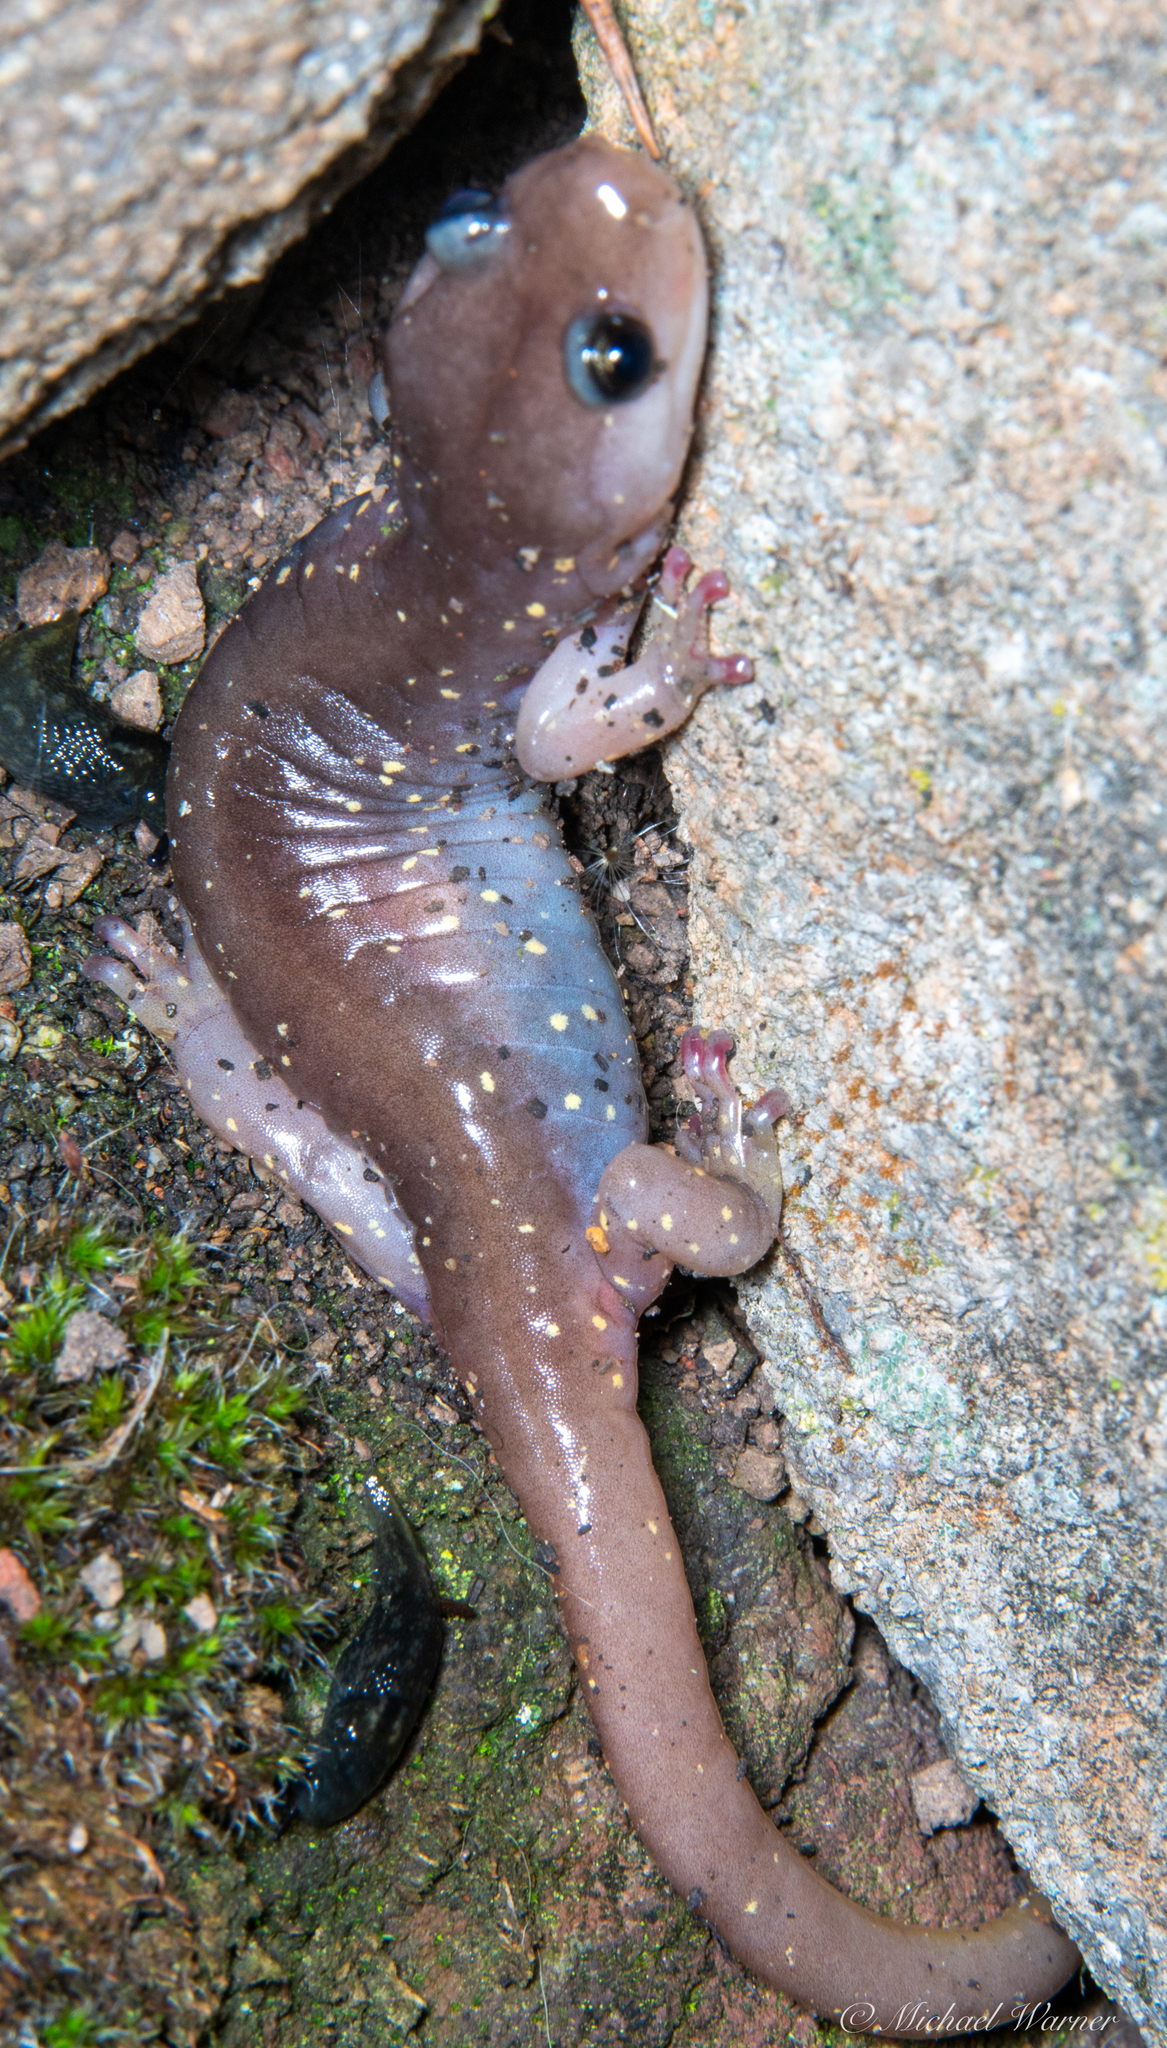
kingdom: Animalia
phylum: Chordata
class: Amphibia
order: Caudata
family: Plethodontidae
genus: Aneides
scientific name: Aneides lugubris
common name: Arboreal salamander
